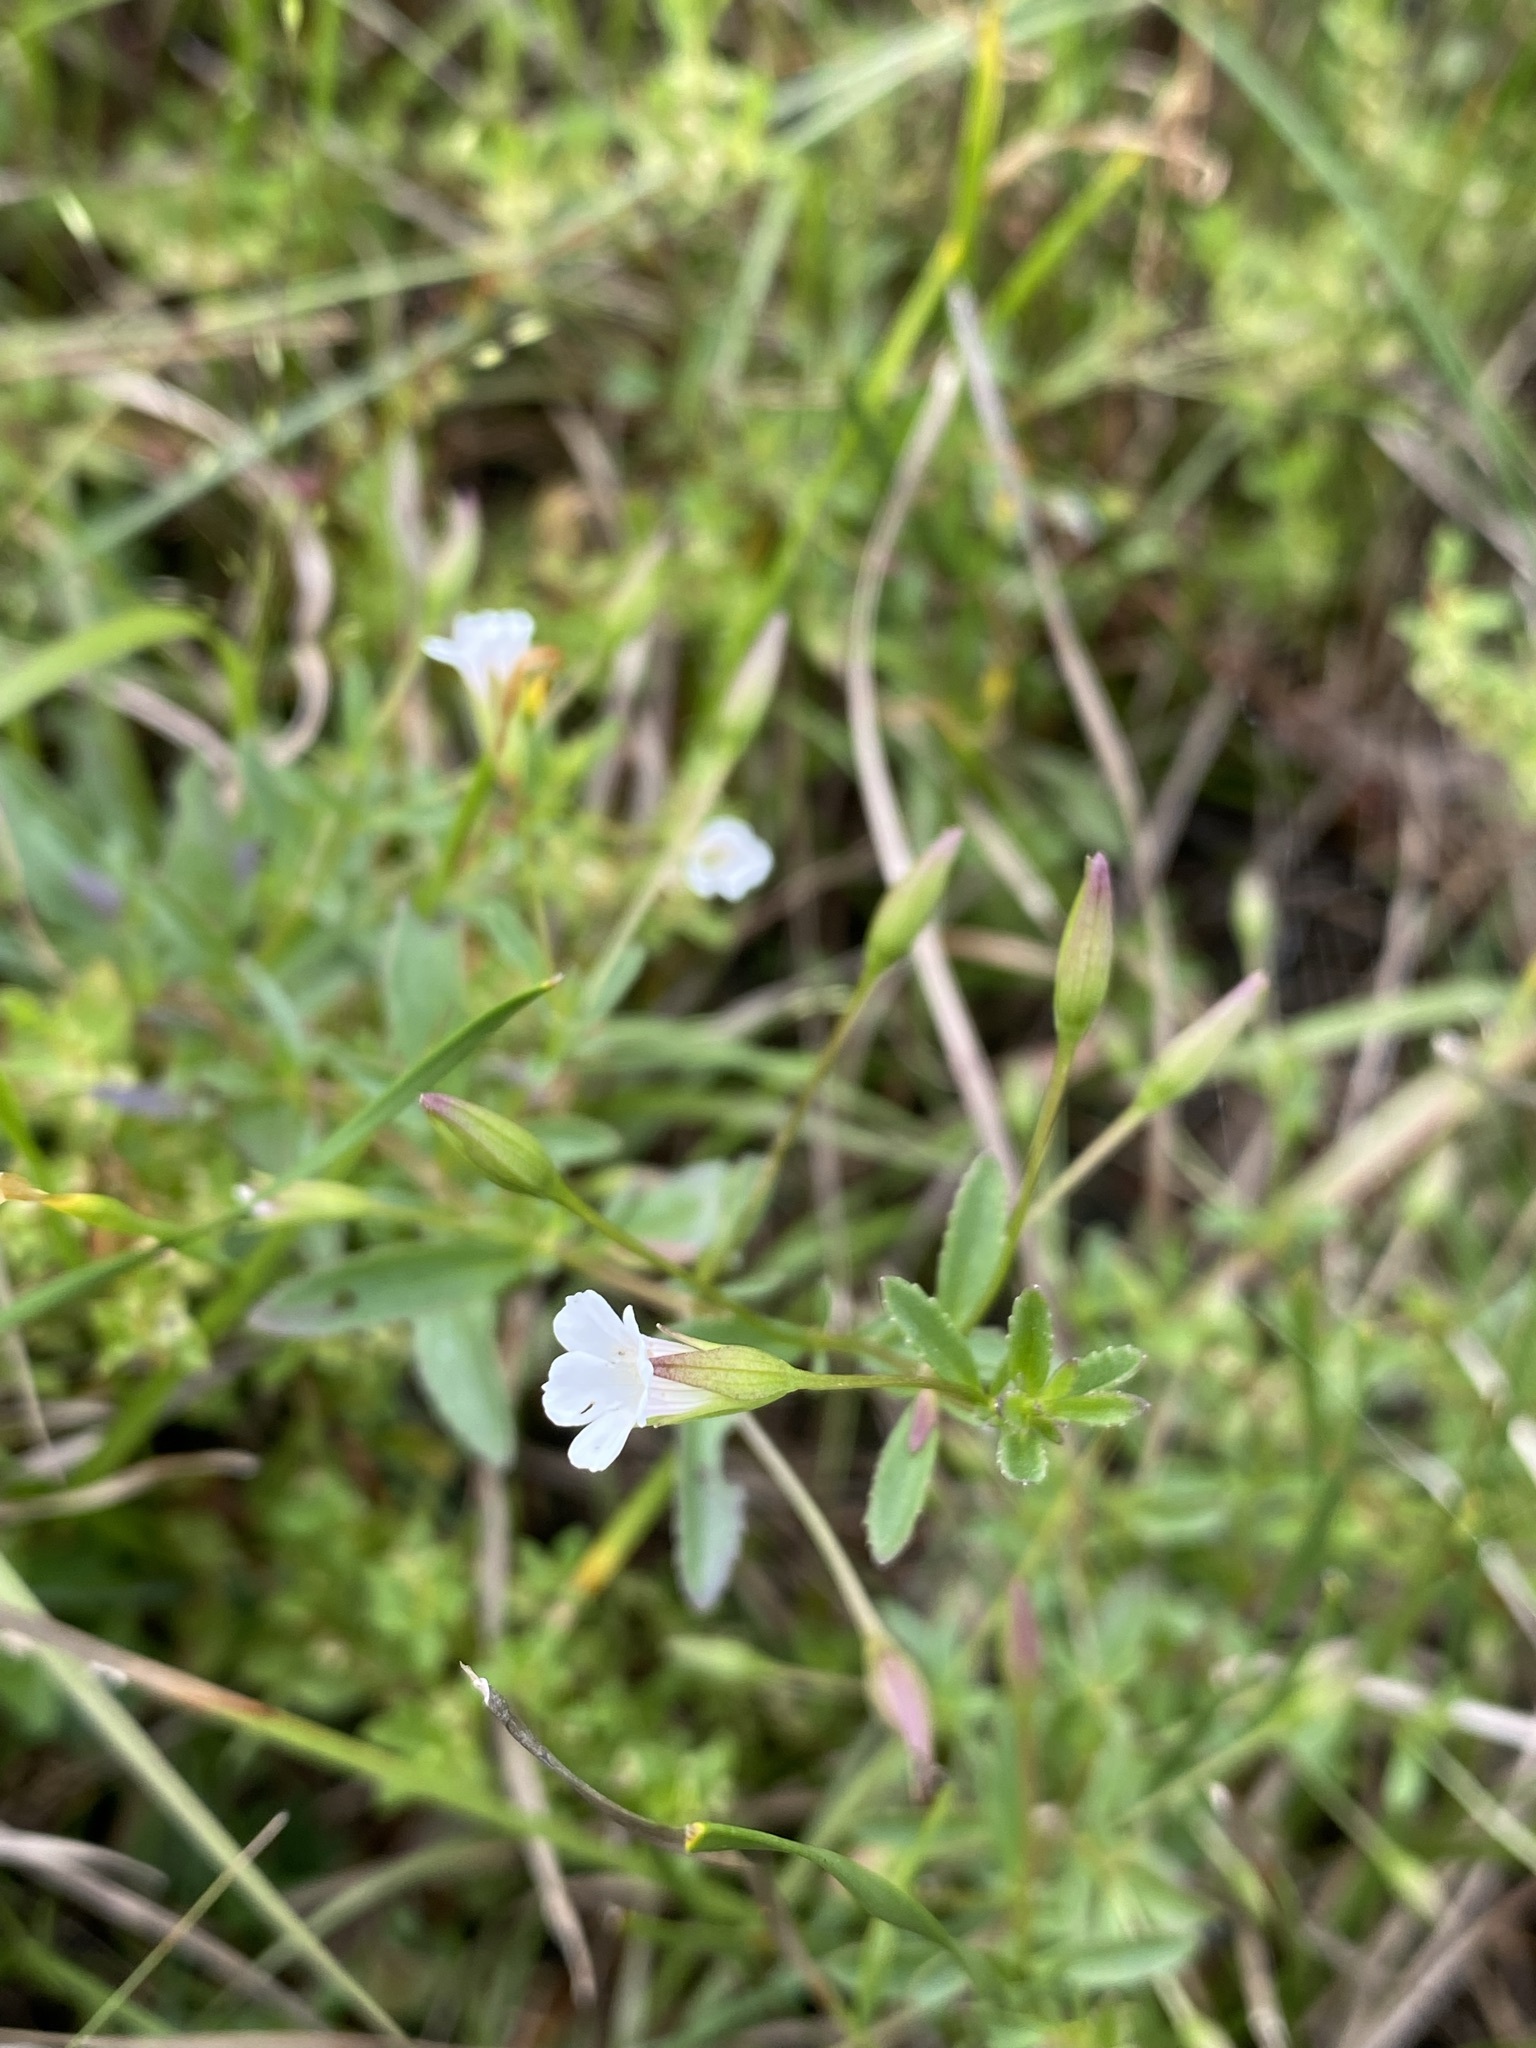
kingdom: Plantae
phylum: Tracheophyta
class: Magnoliopsida
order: Lamiales
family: Plantaginaceae
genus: Mecardonia
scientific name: Mecardonia acuminata
